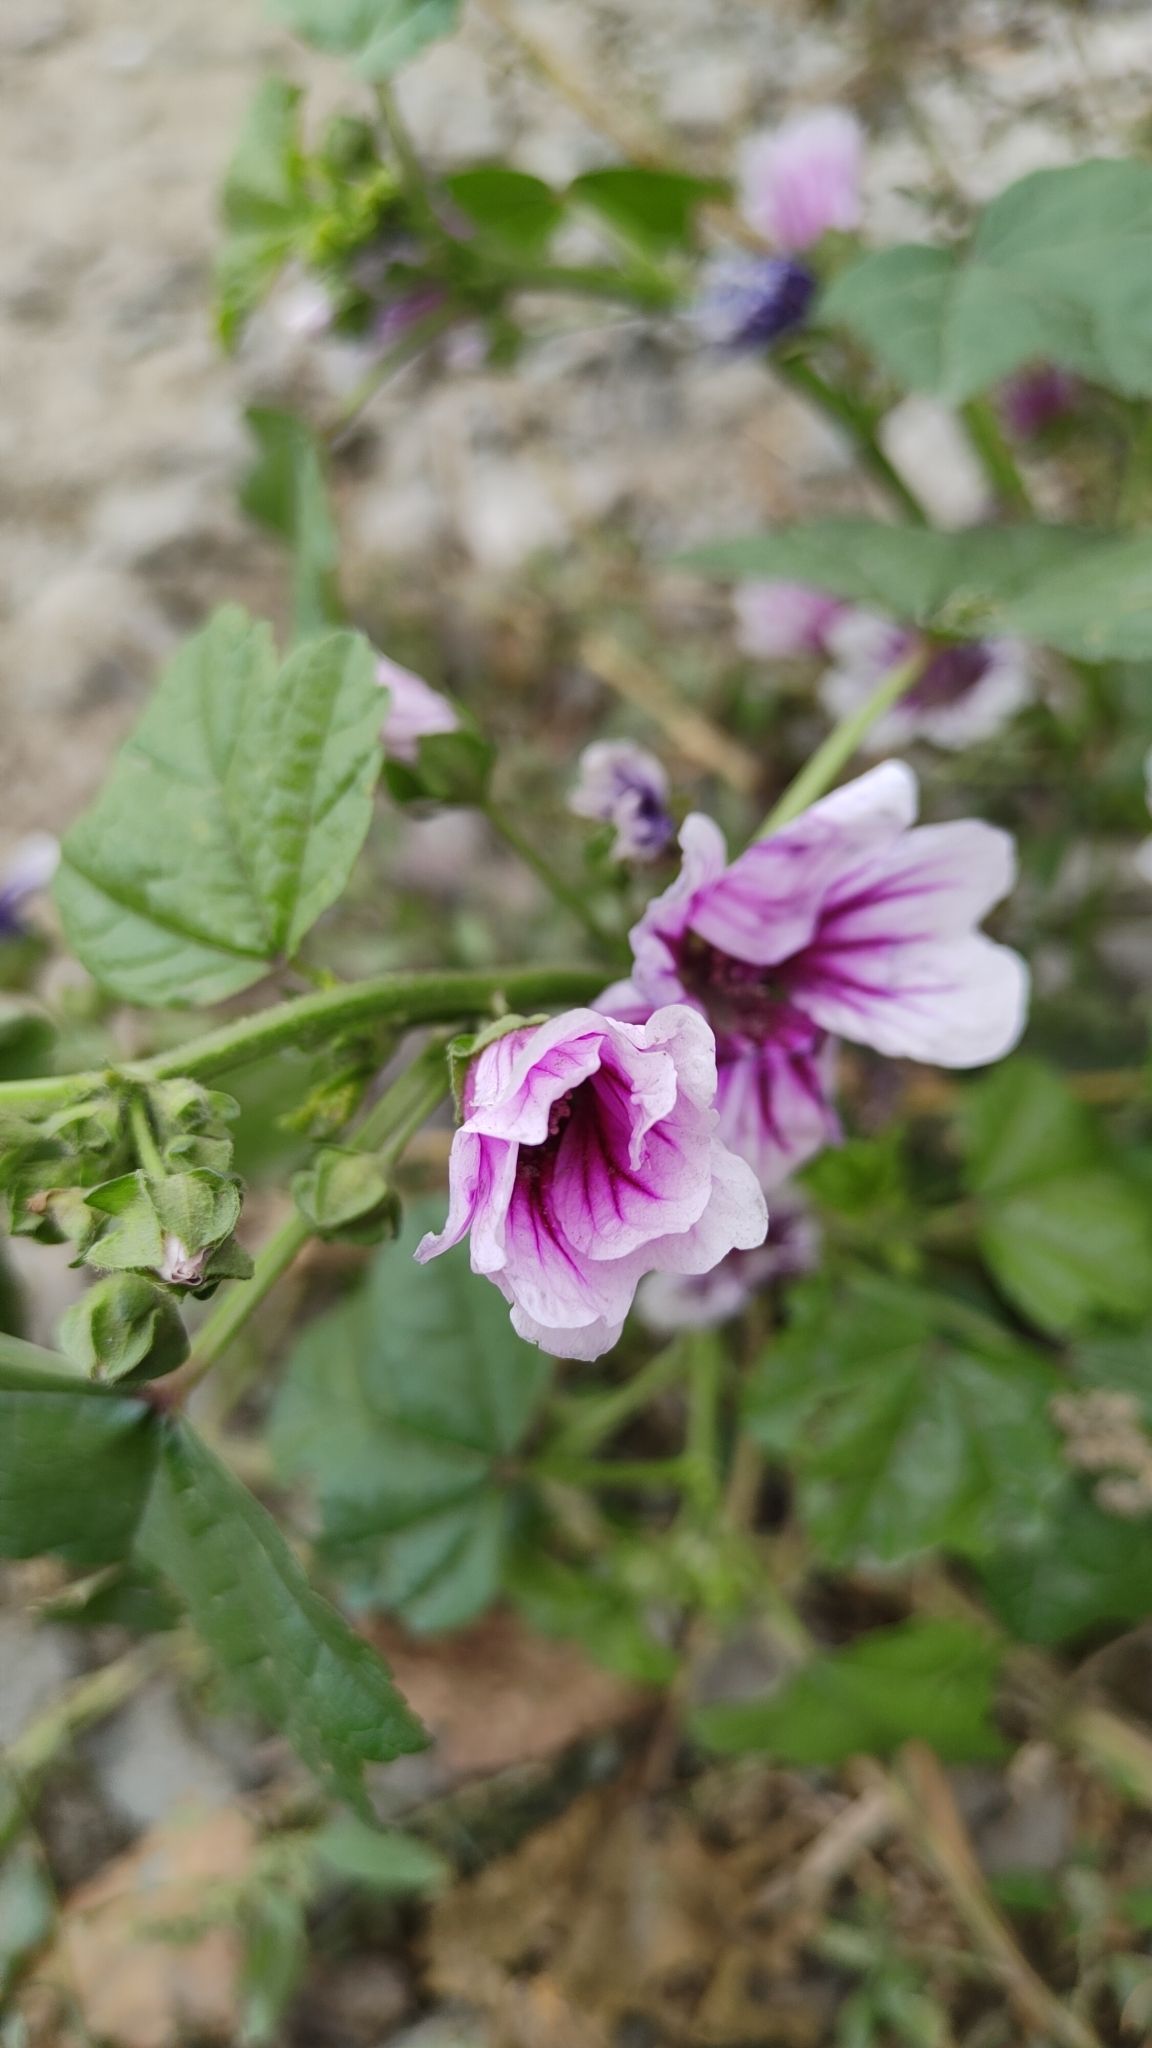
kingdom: Plantae
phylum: Tracheophyta
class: Magnoliopsida
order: Malvales
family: Malvaceae
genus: Malva
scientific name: Malva sylvestris
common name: Common mallow
